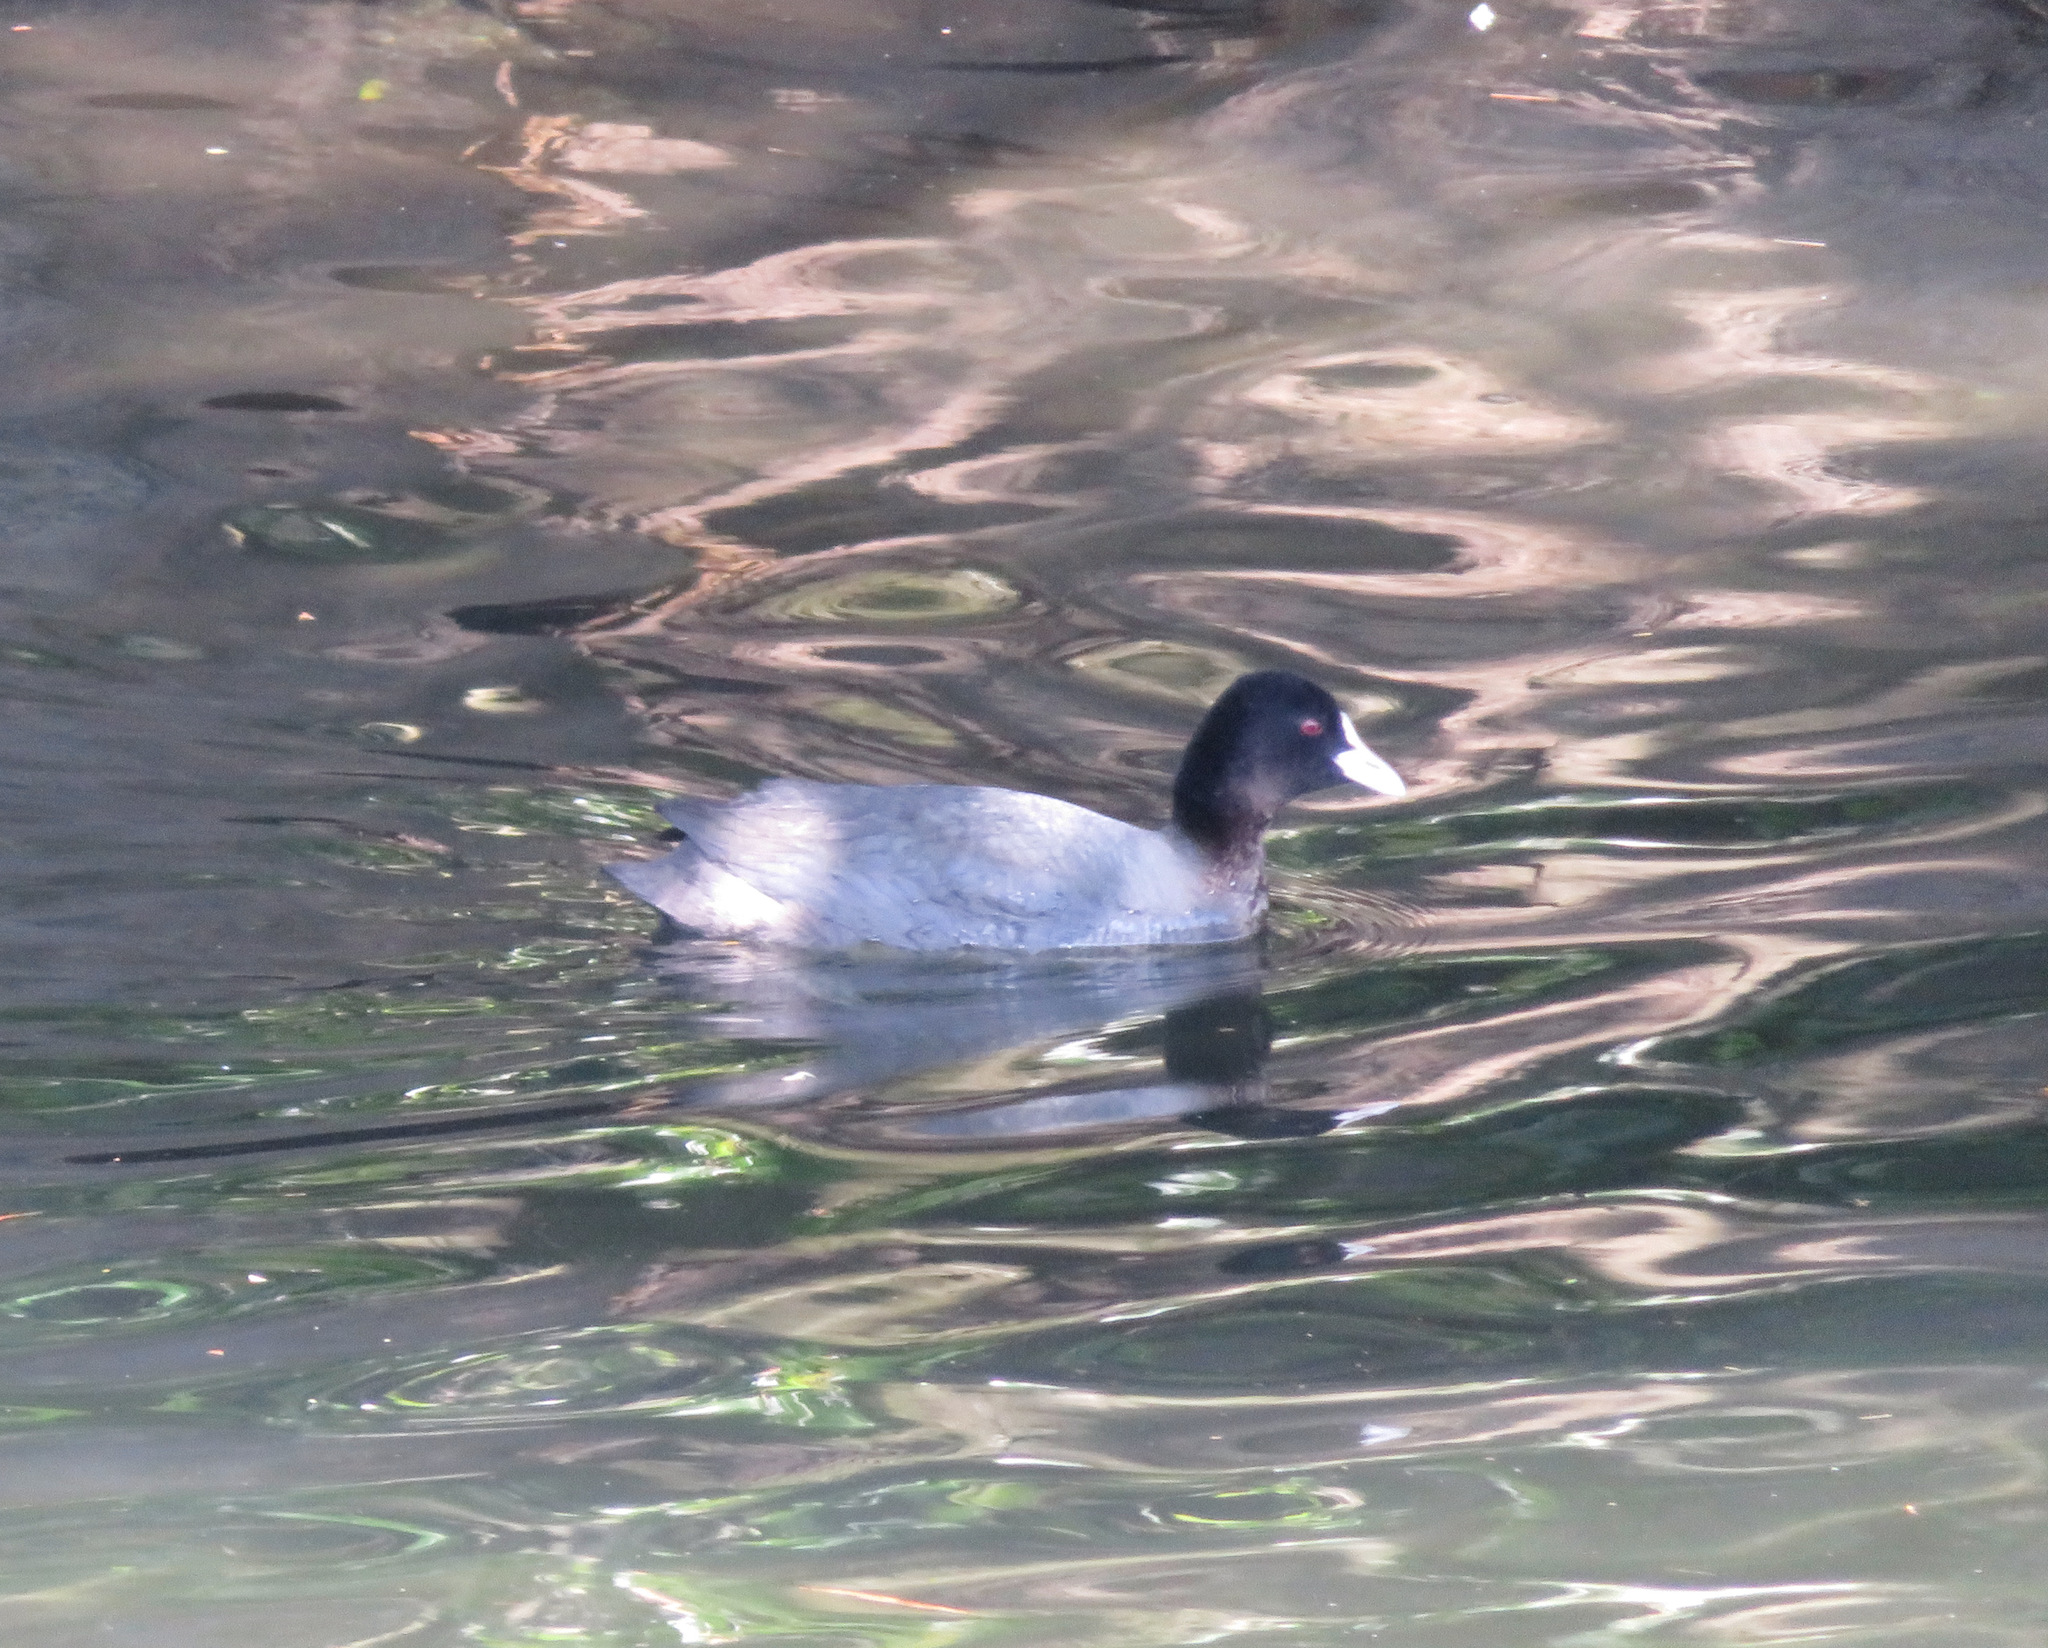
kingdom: Animalia
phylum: Chordata
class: Aves
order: Gruiformes
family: Rallidae
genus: Fulica
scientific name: Fulica atra
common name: Eurasian coot
